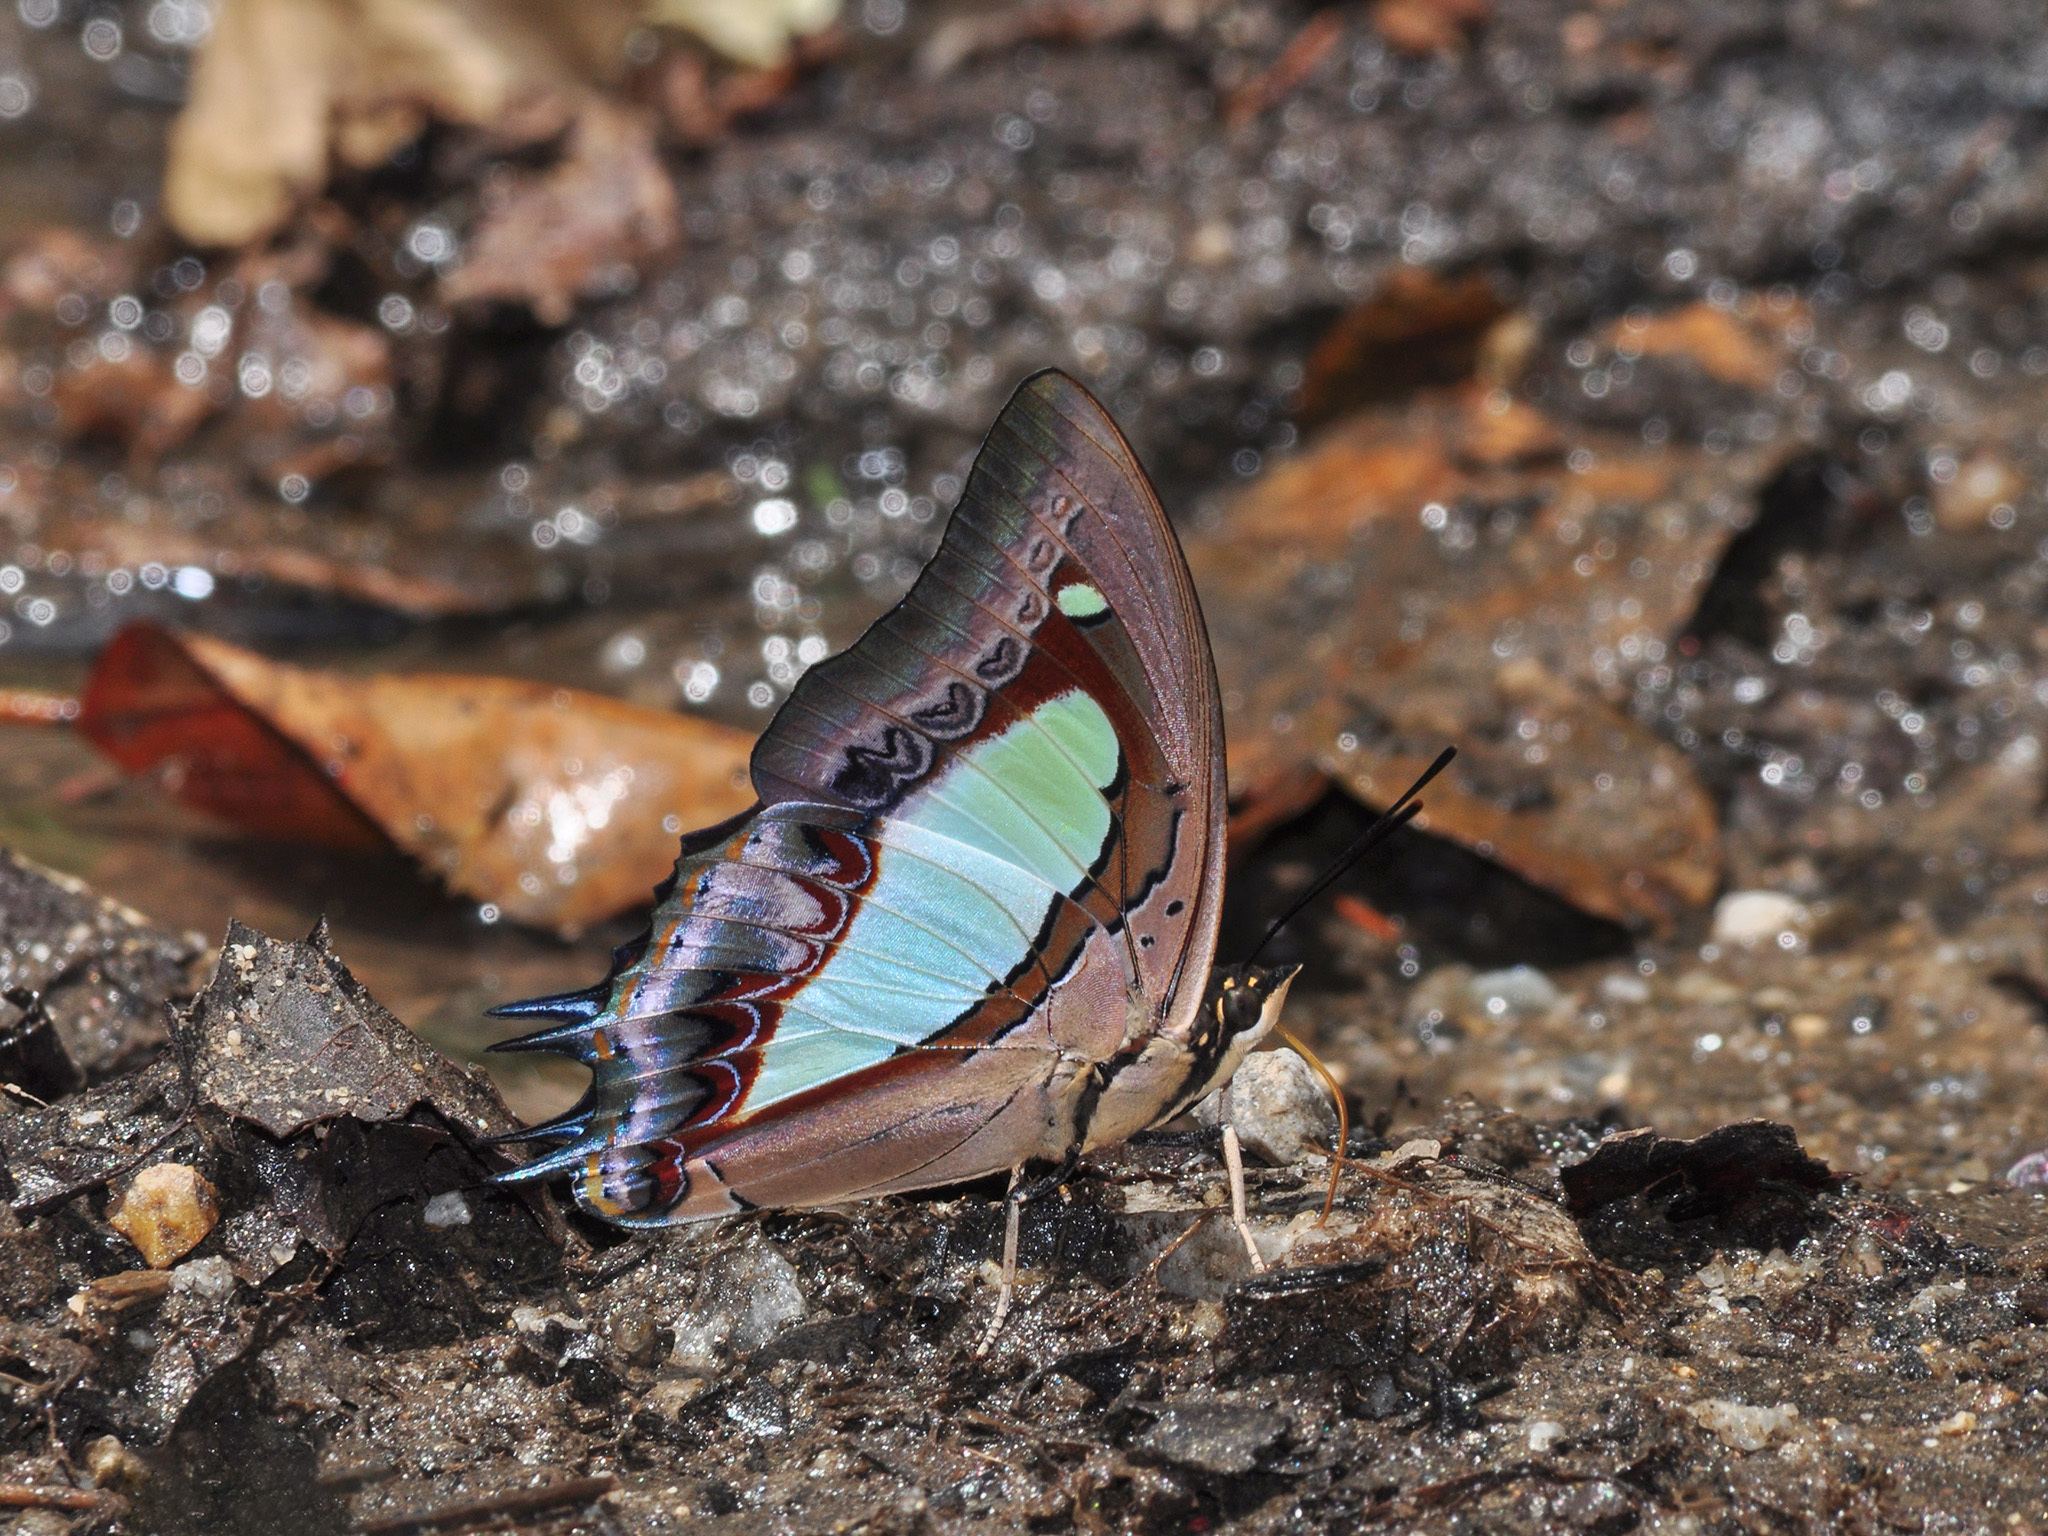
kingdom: Animalia
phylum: Arthropoda
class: Insecta
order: Lepidoptera
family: Nymphalidae
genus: Polyura
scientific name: Polyura athamas
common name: Common nawab
